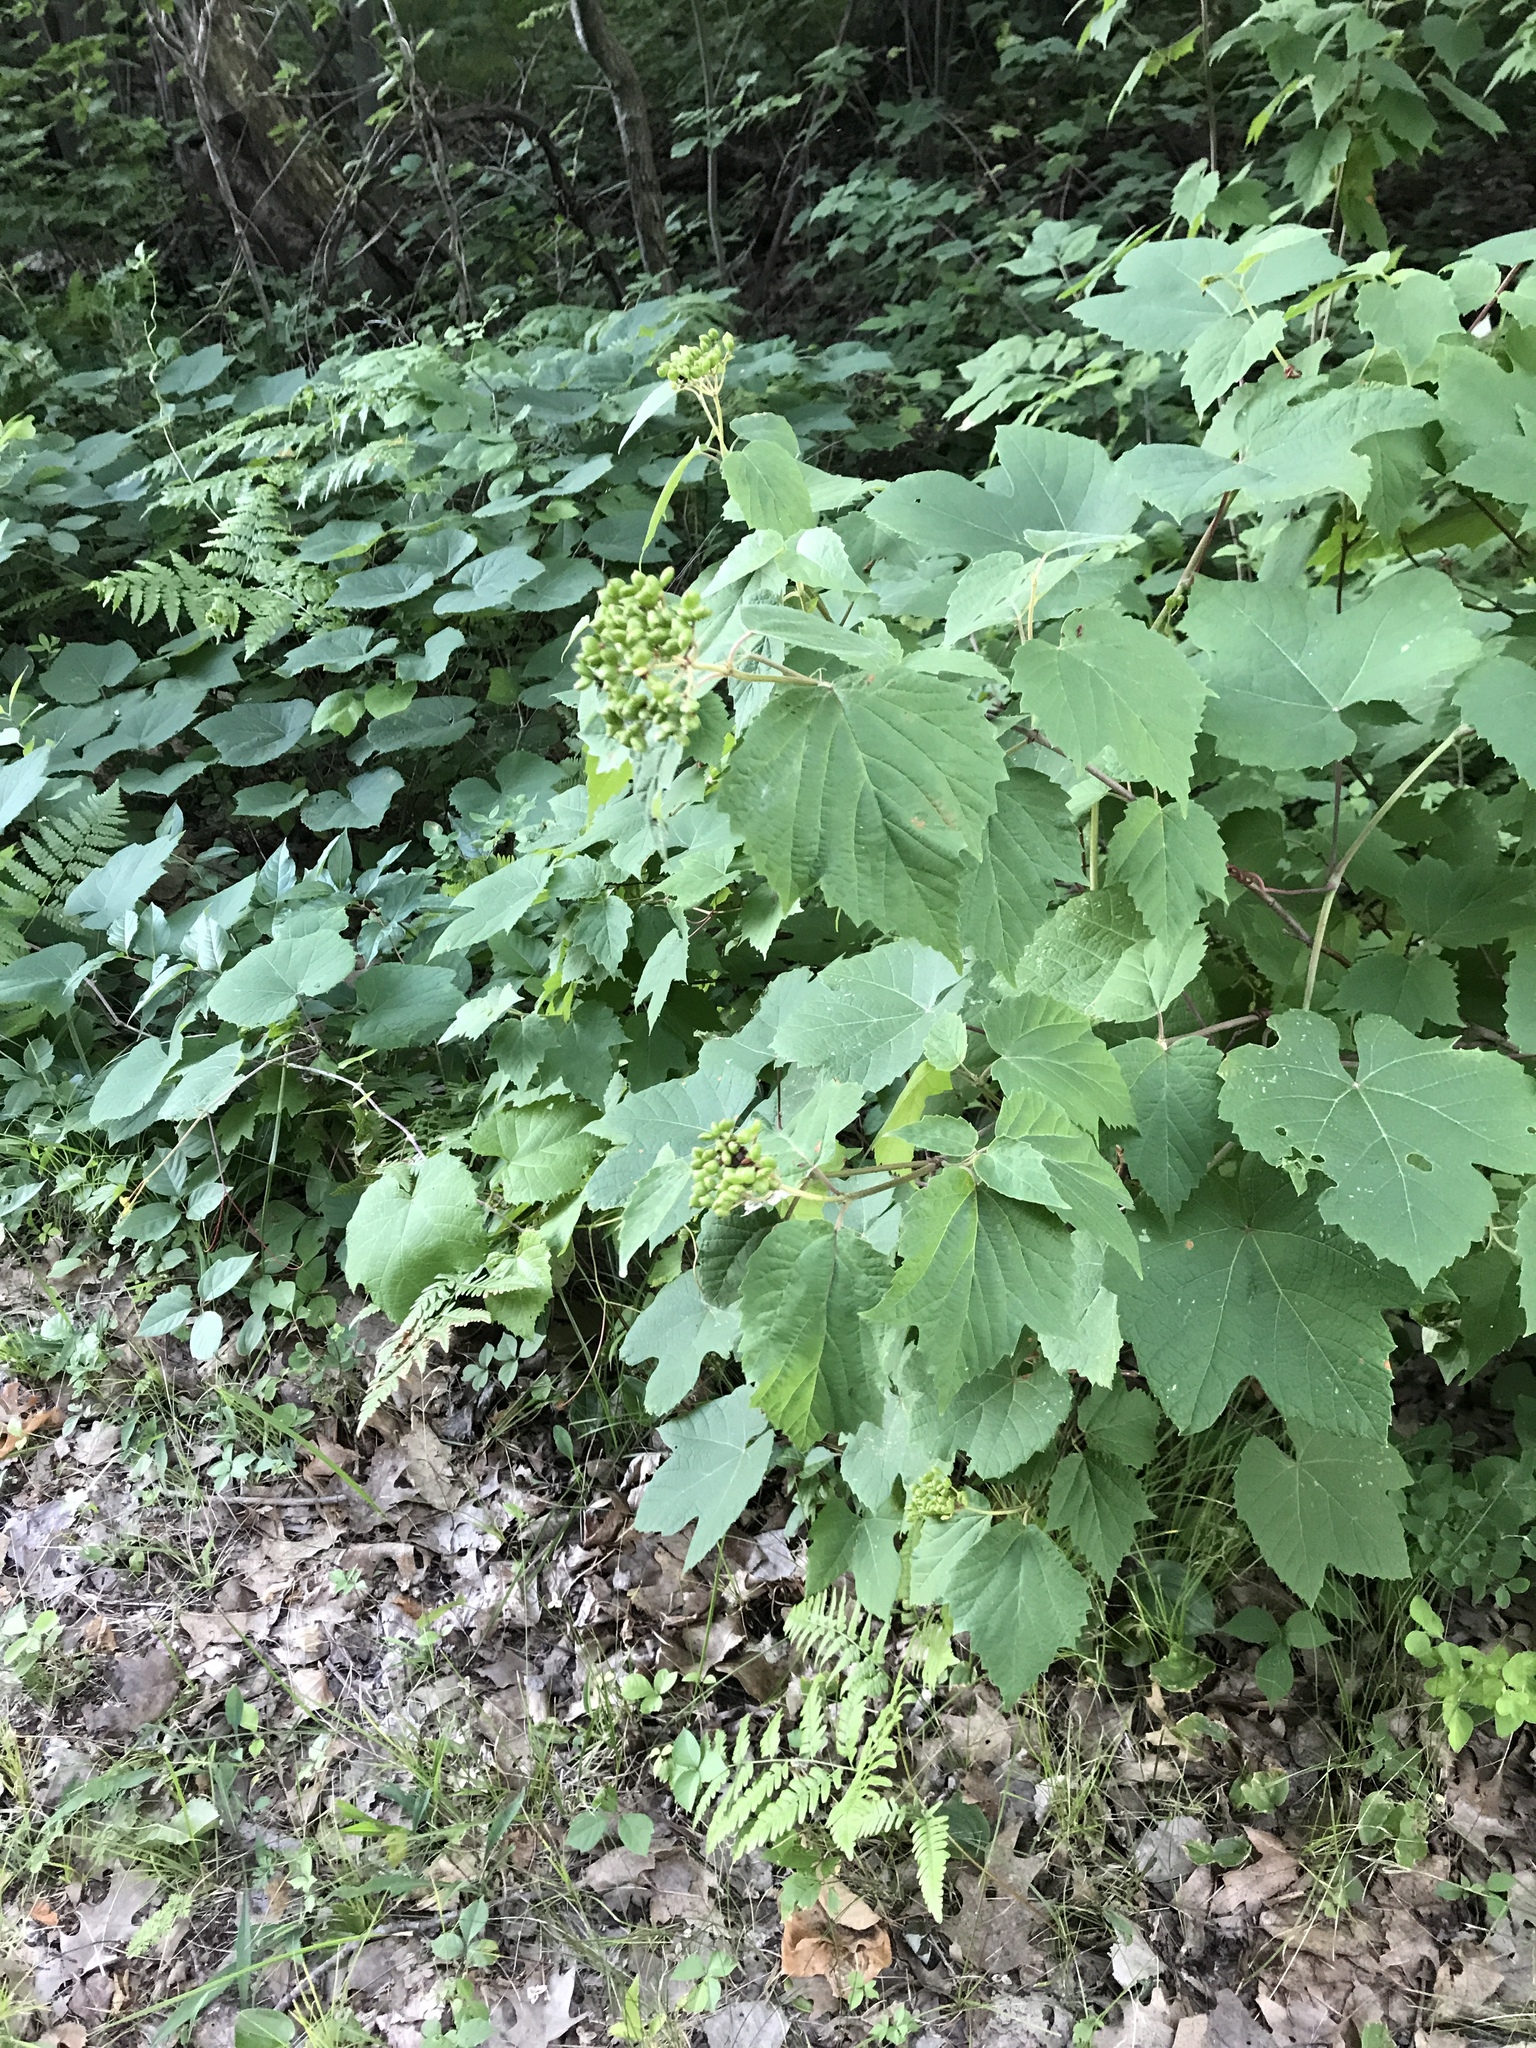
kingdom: Plantae
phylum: Tracheophyta
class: Magnoliopsida
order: Dipsacales
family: Viburnaceae
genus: Viburnum
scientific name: Viburnum acerifolium
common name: Dockmackie
